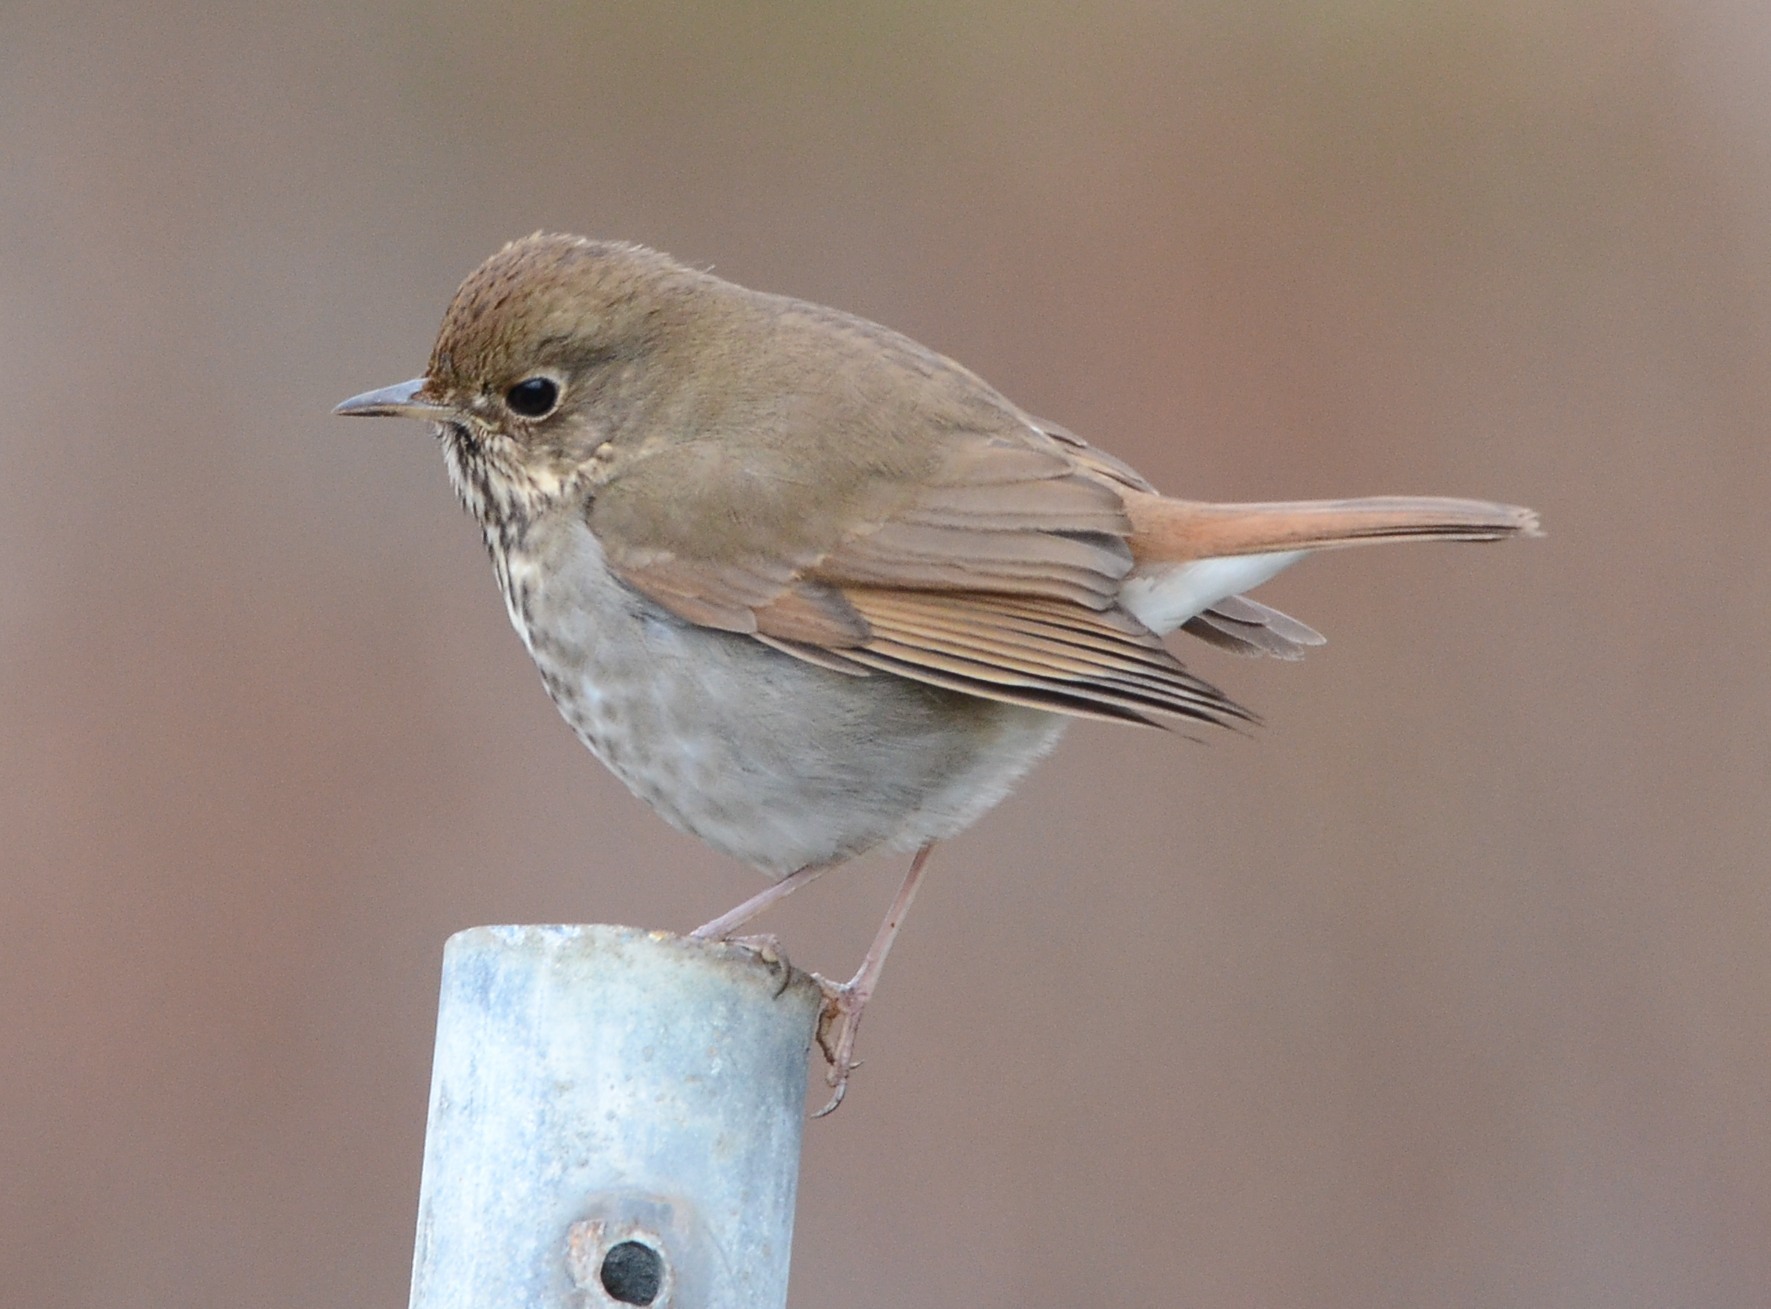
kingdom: Animalia
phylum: Chordata
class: Aves
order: Passeriformes
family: Turdidae
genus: Catharus
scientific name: Catharus guttatus
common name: Hermit thrush
